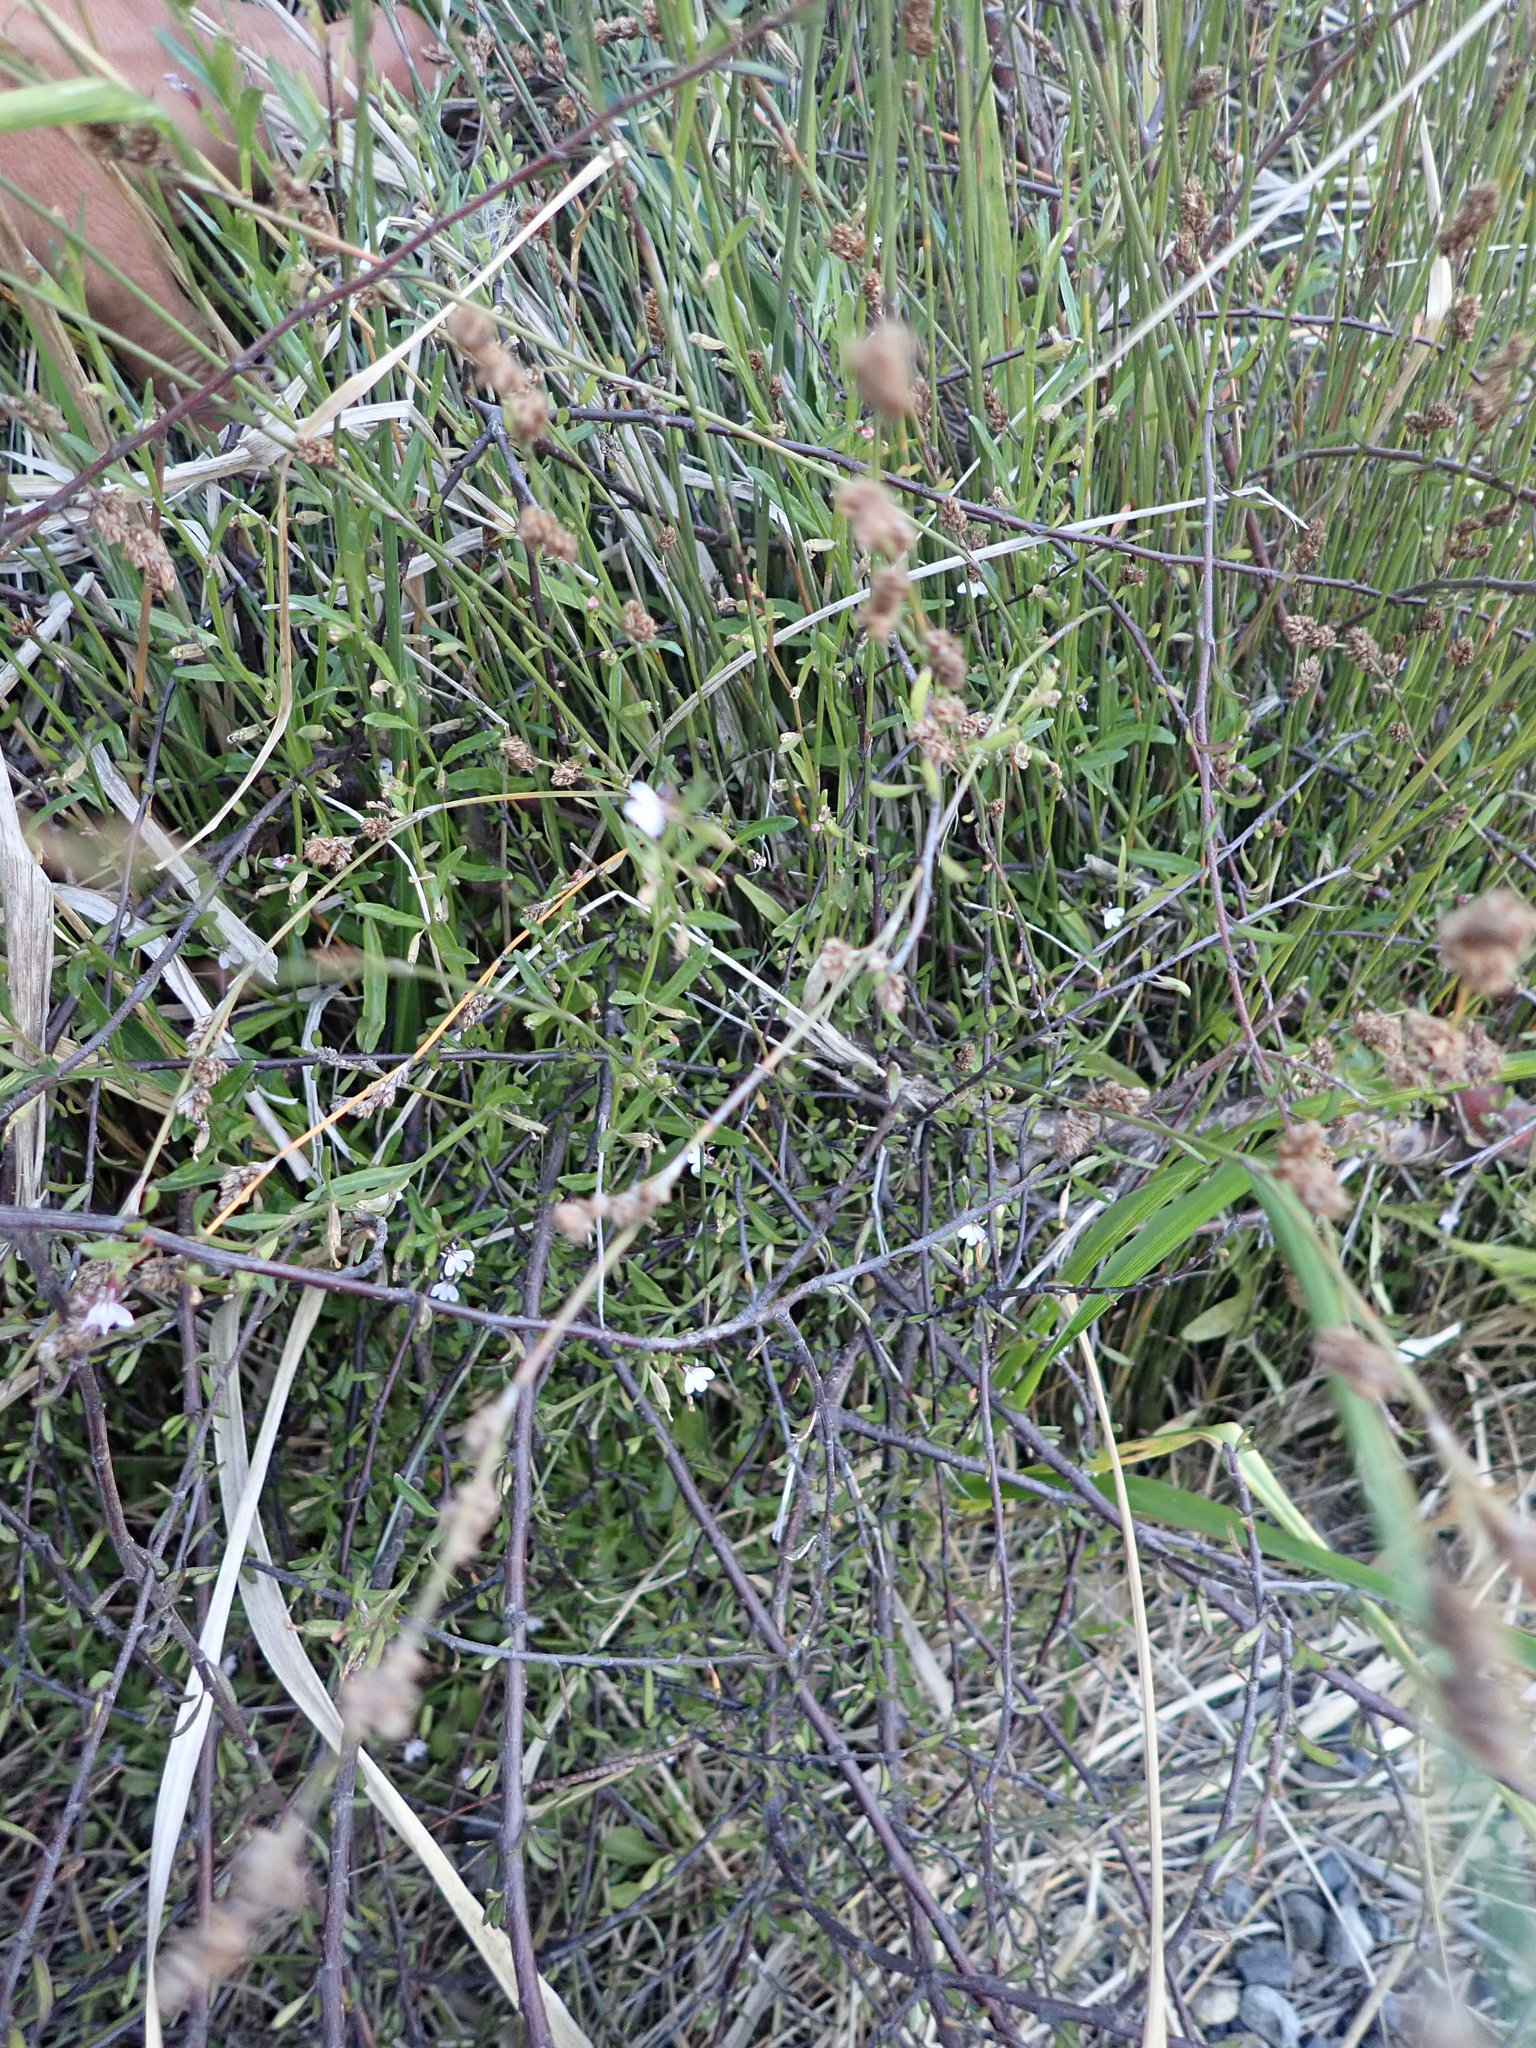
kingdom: Plantae
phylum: Tracheophyta
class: Magnoliopsida
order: Asterales
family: Campanulaceae
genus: Lobelia
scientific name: Lobelia anceps
